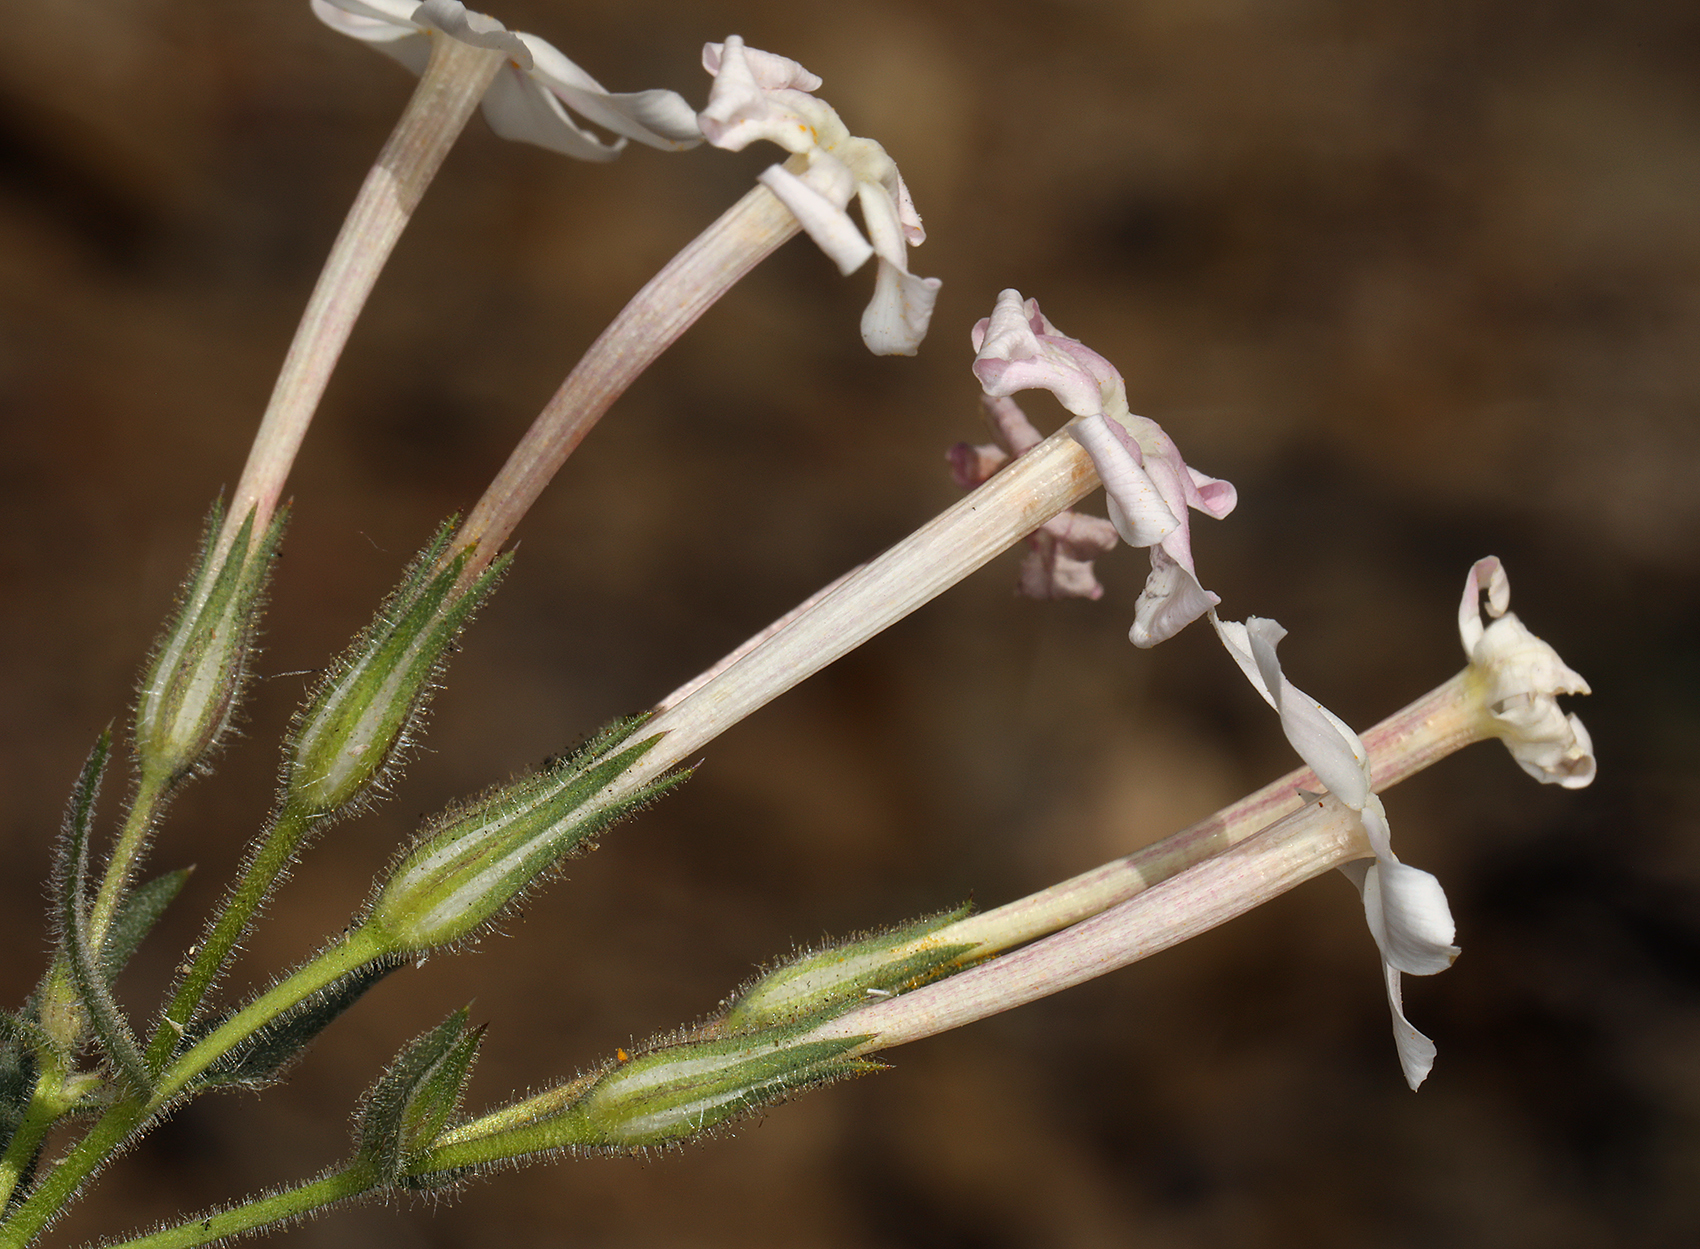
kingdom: Plantae
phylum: Tracheophyta
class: Magnoliopsida
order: Ericales
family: Polemoniaceae
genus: Phlox
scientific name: Phlox longifolia
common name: Longleaf phlox
